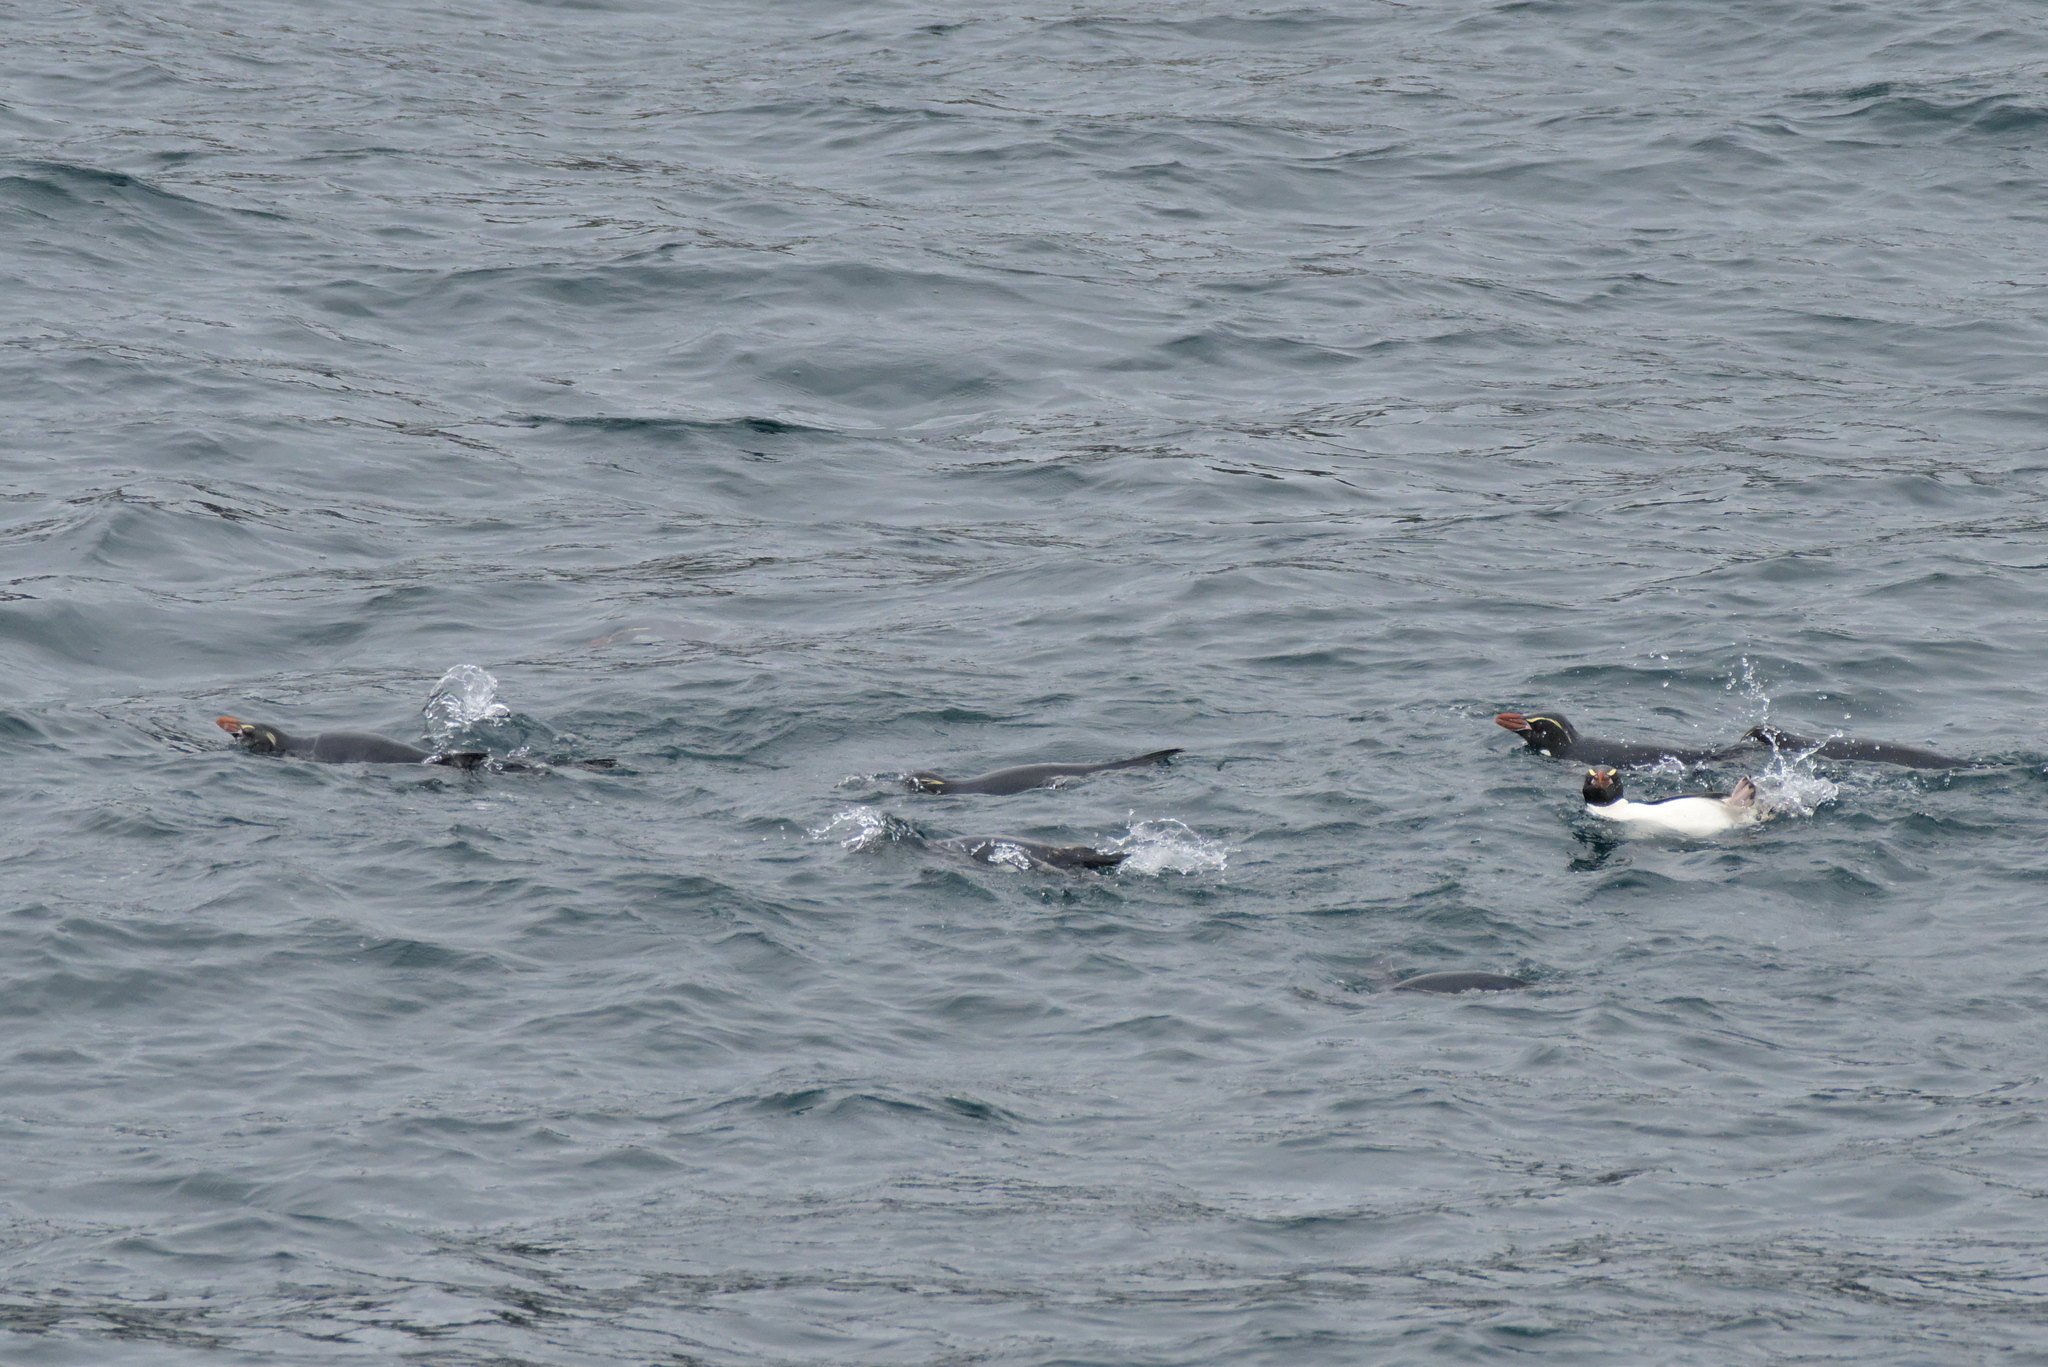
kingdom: Animalia
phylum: Chordata
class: Aves
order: Sphenisciformes
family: Spheniscidae
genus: Eudyptes
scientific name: Eudyptes robustus
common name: Snares penguin
